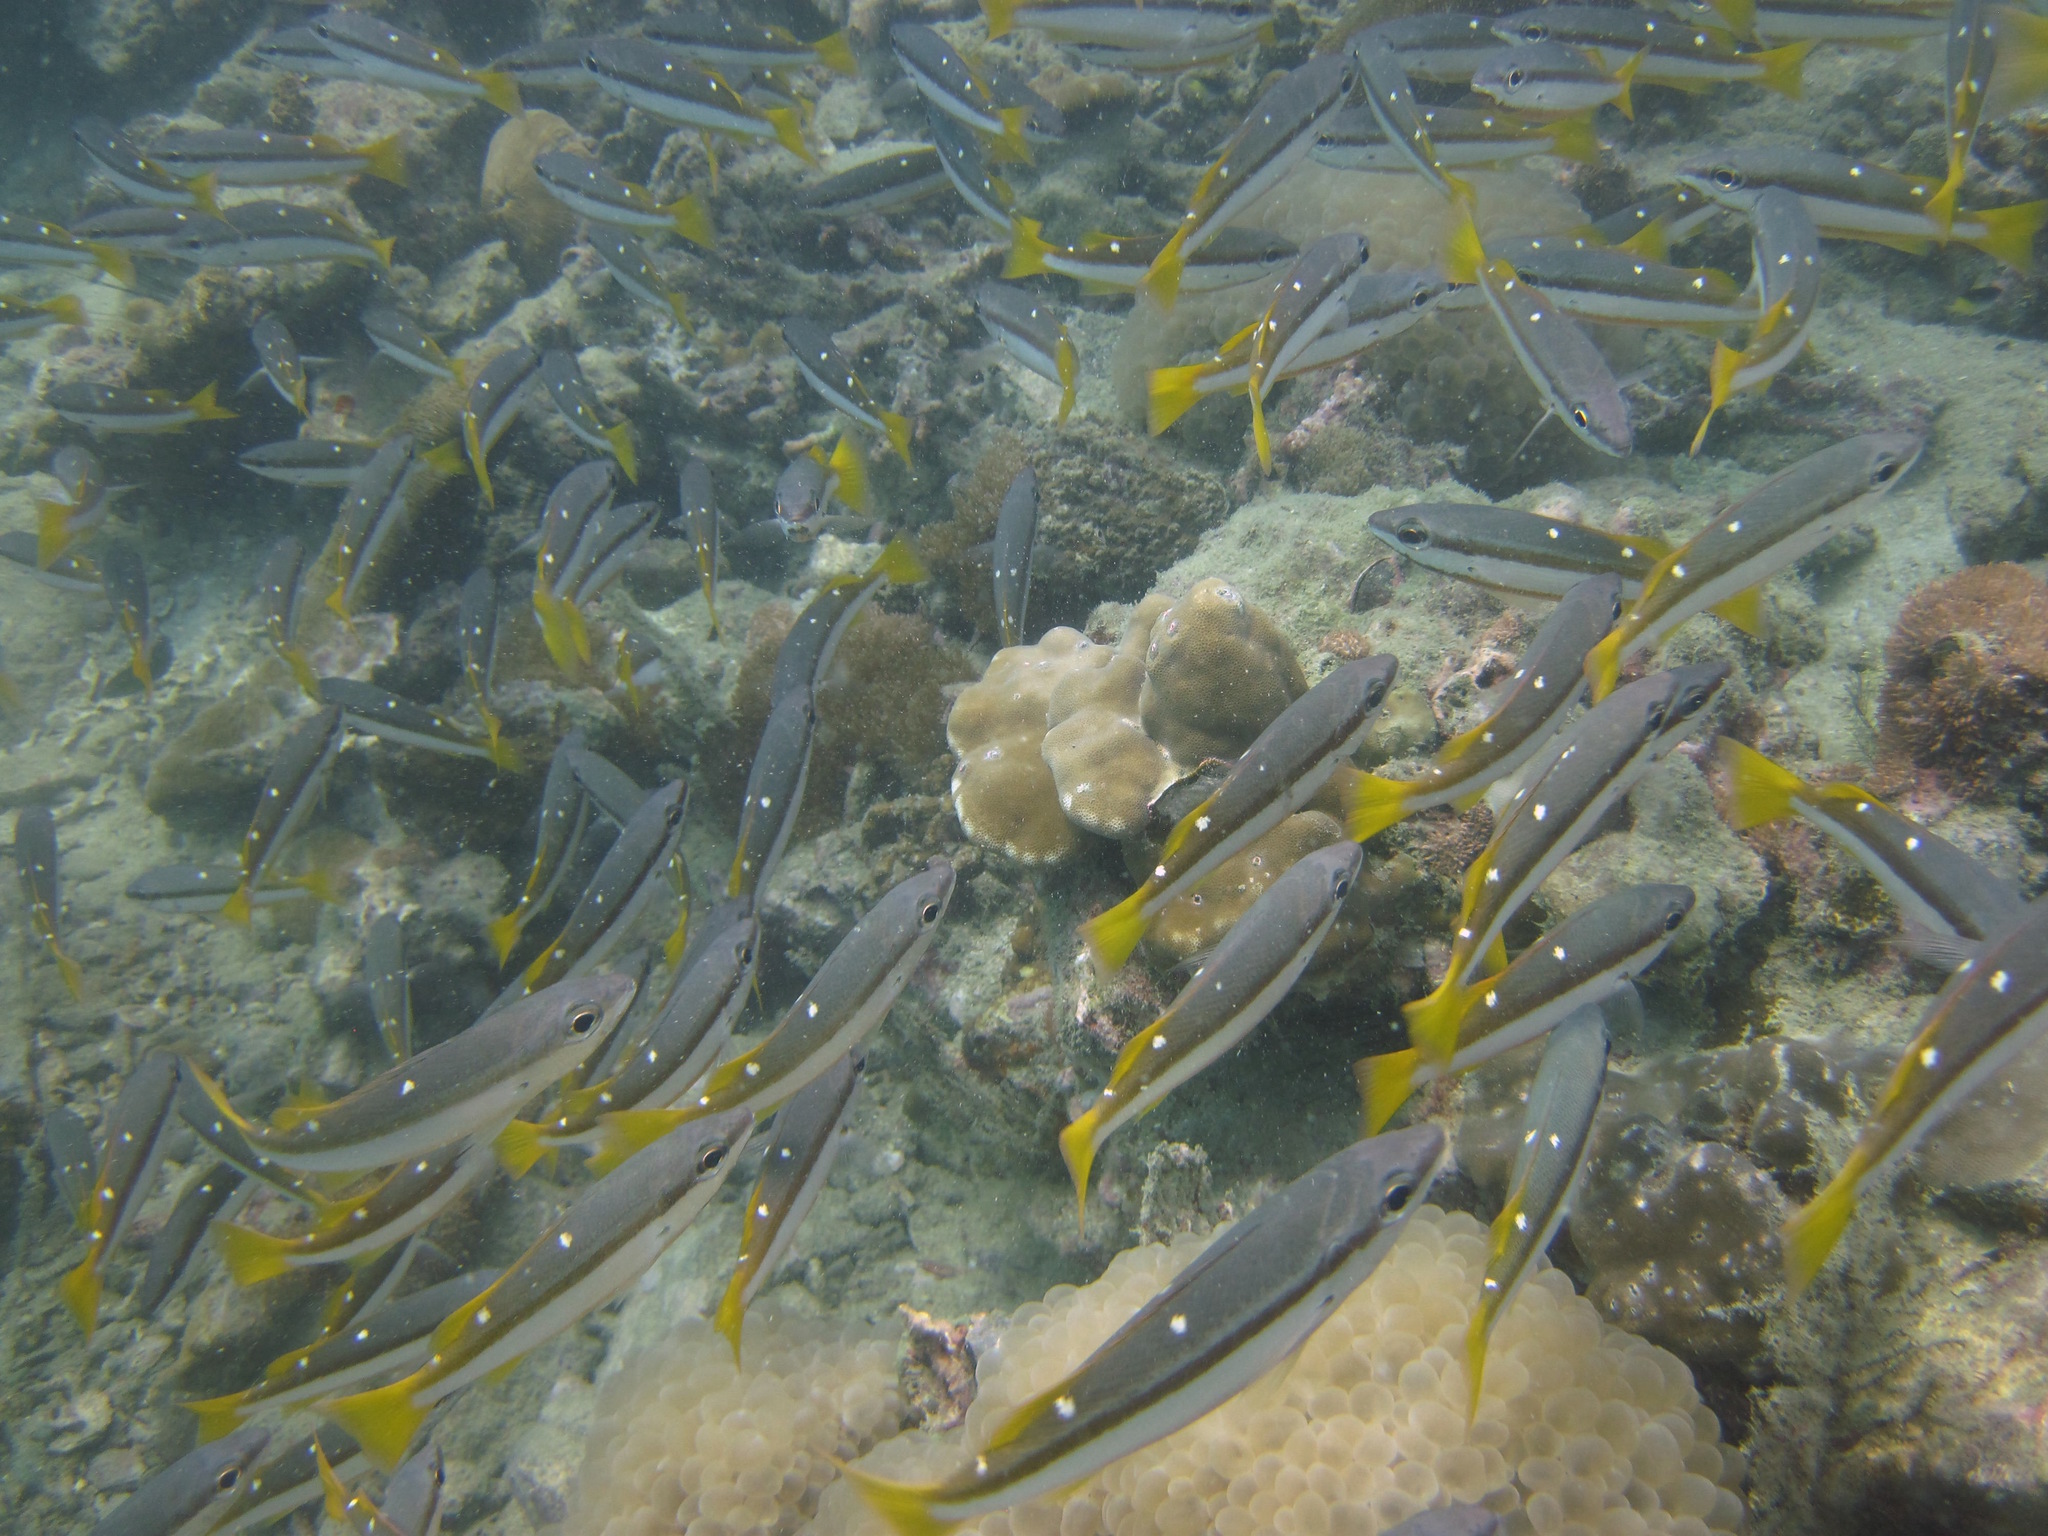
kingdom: Animalia
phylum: Chordata
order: Perciformes
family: Lutjanidae
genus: Lutjanus
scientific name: Lutjanus biguttatus
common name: Two-spot snapper
